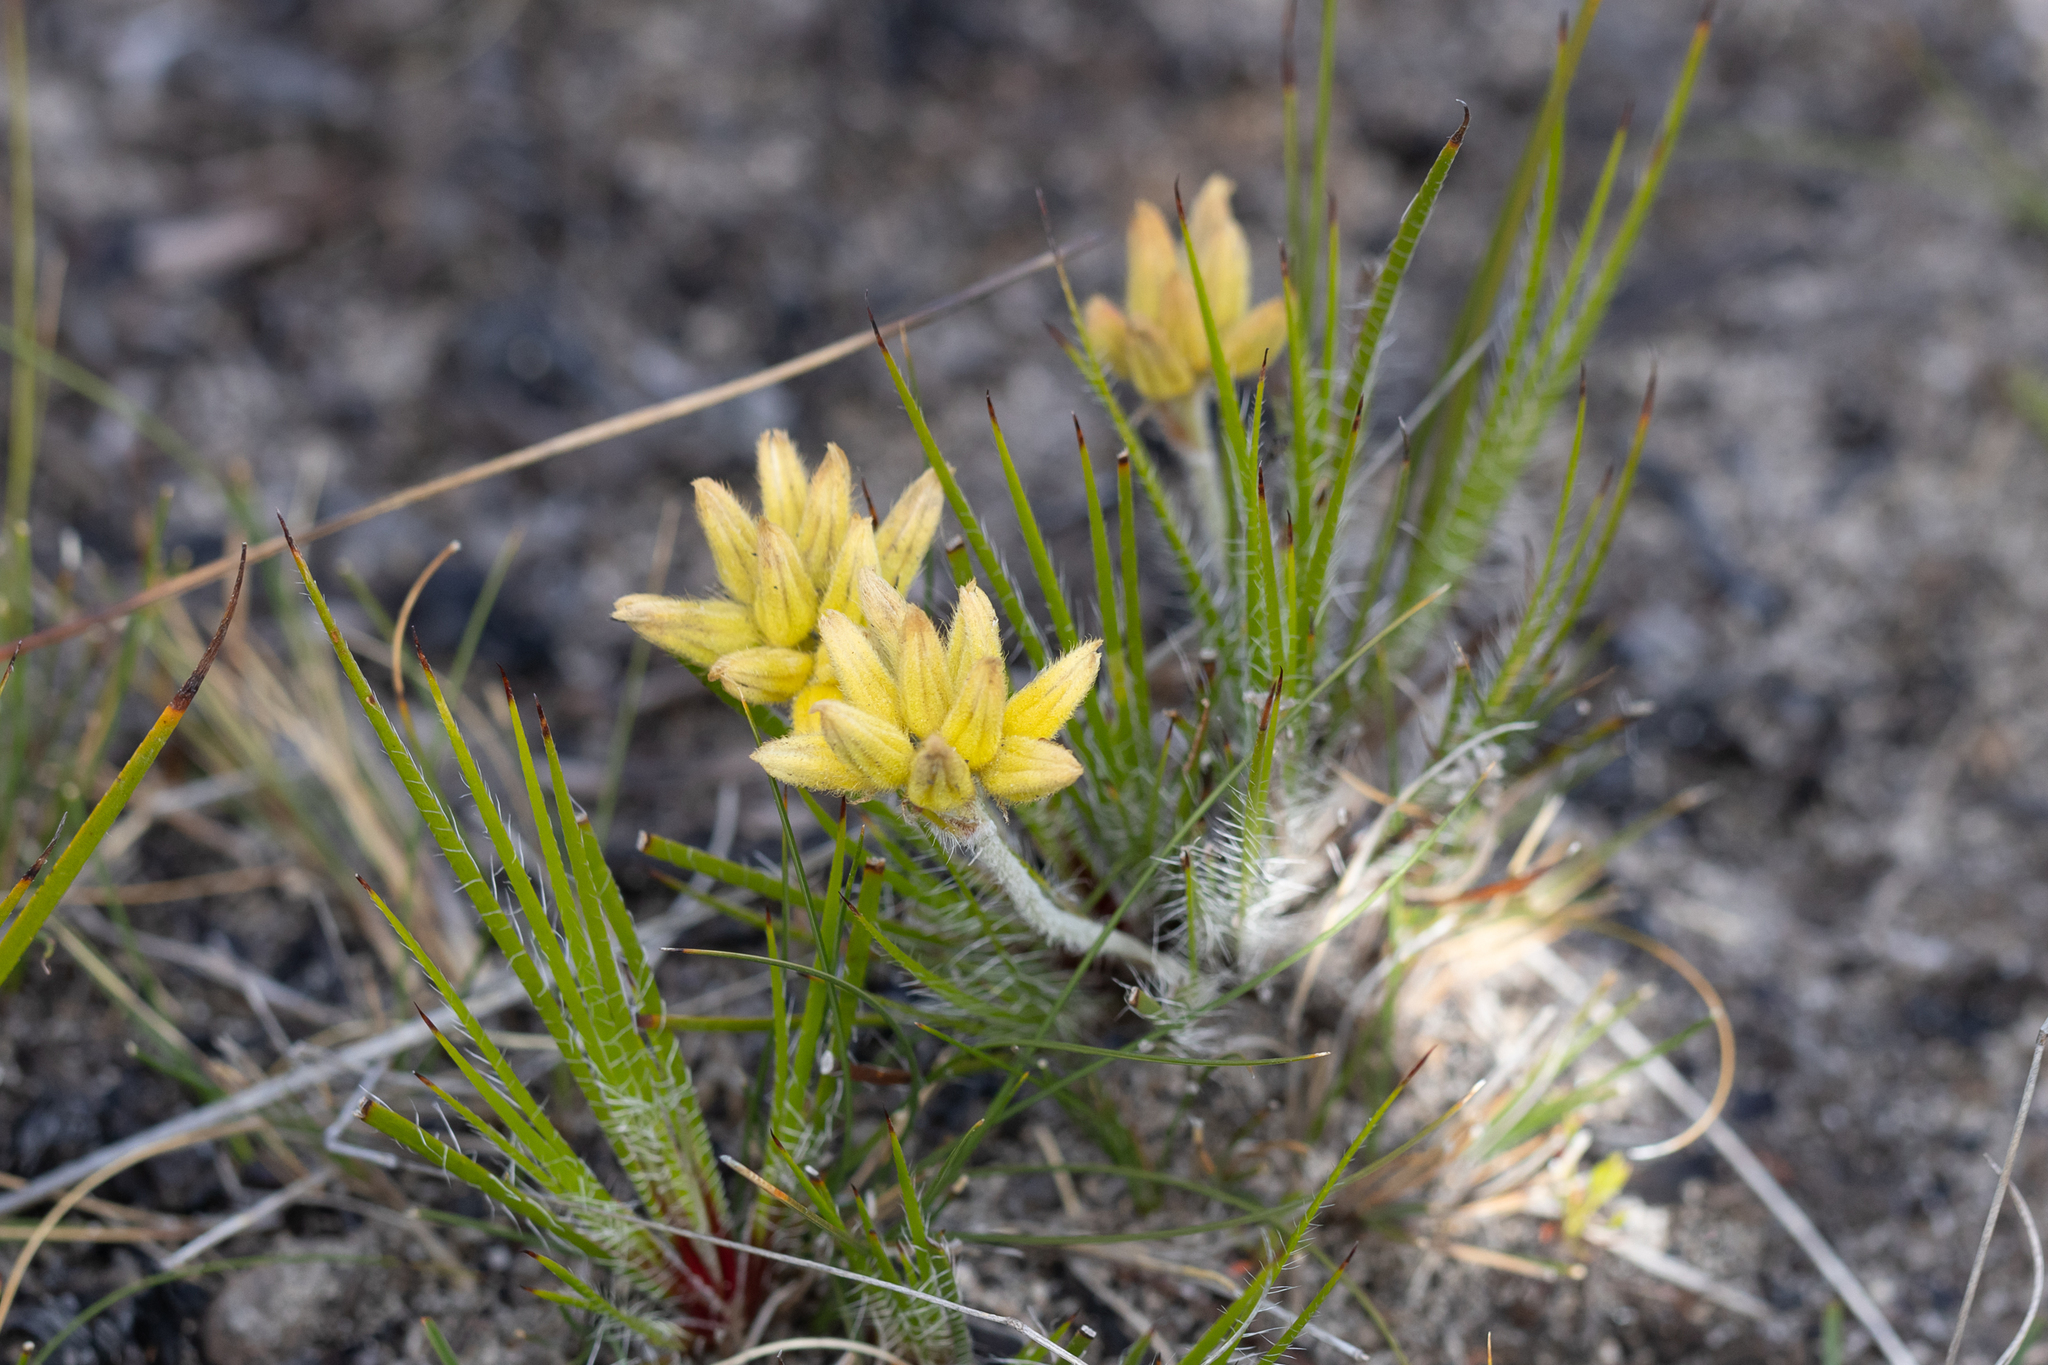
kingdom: Plantae
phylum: Tracheophyta
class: Liliopsida
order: Commelinales
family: Haemodoraceae
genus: Conostylis
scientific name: Conostylis setigera
